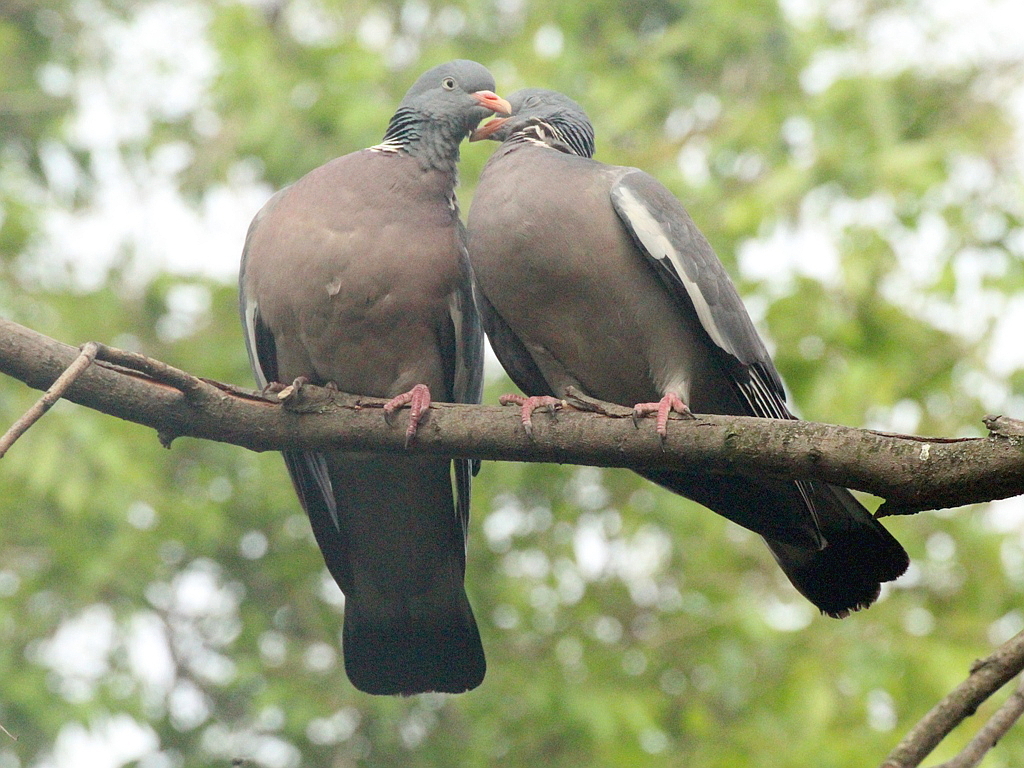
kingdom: Animalia
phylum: Chordata
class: Aves
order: Columbiformes
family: Columbidae
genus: Columba
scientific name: Columba palumbus
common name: Common wood pigeon
